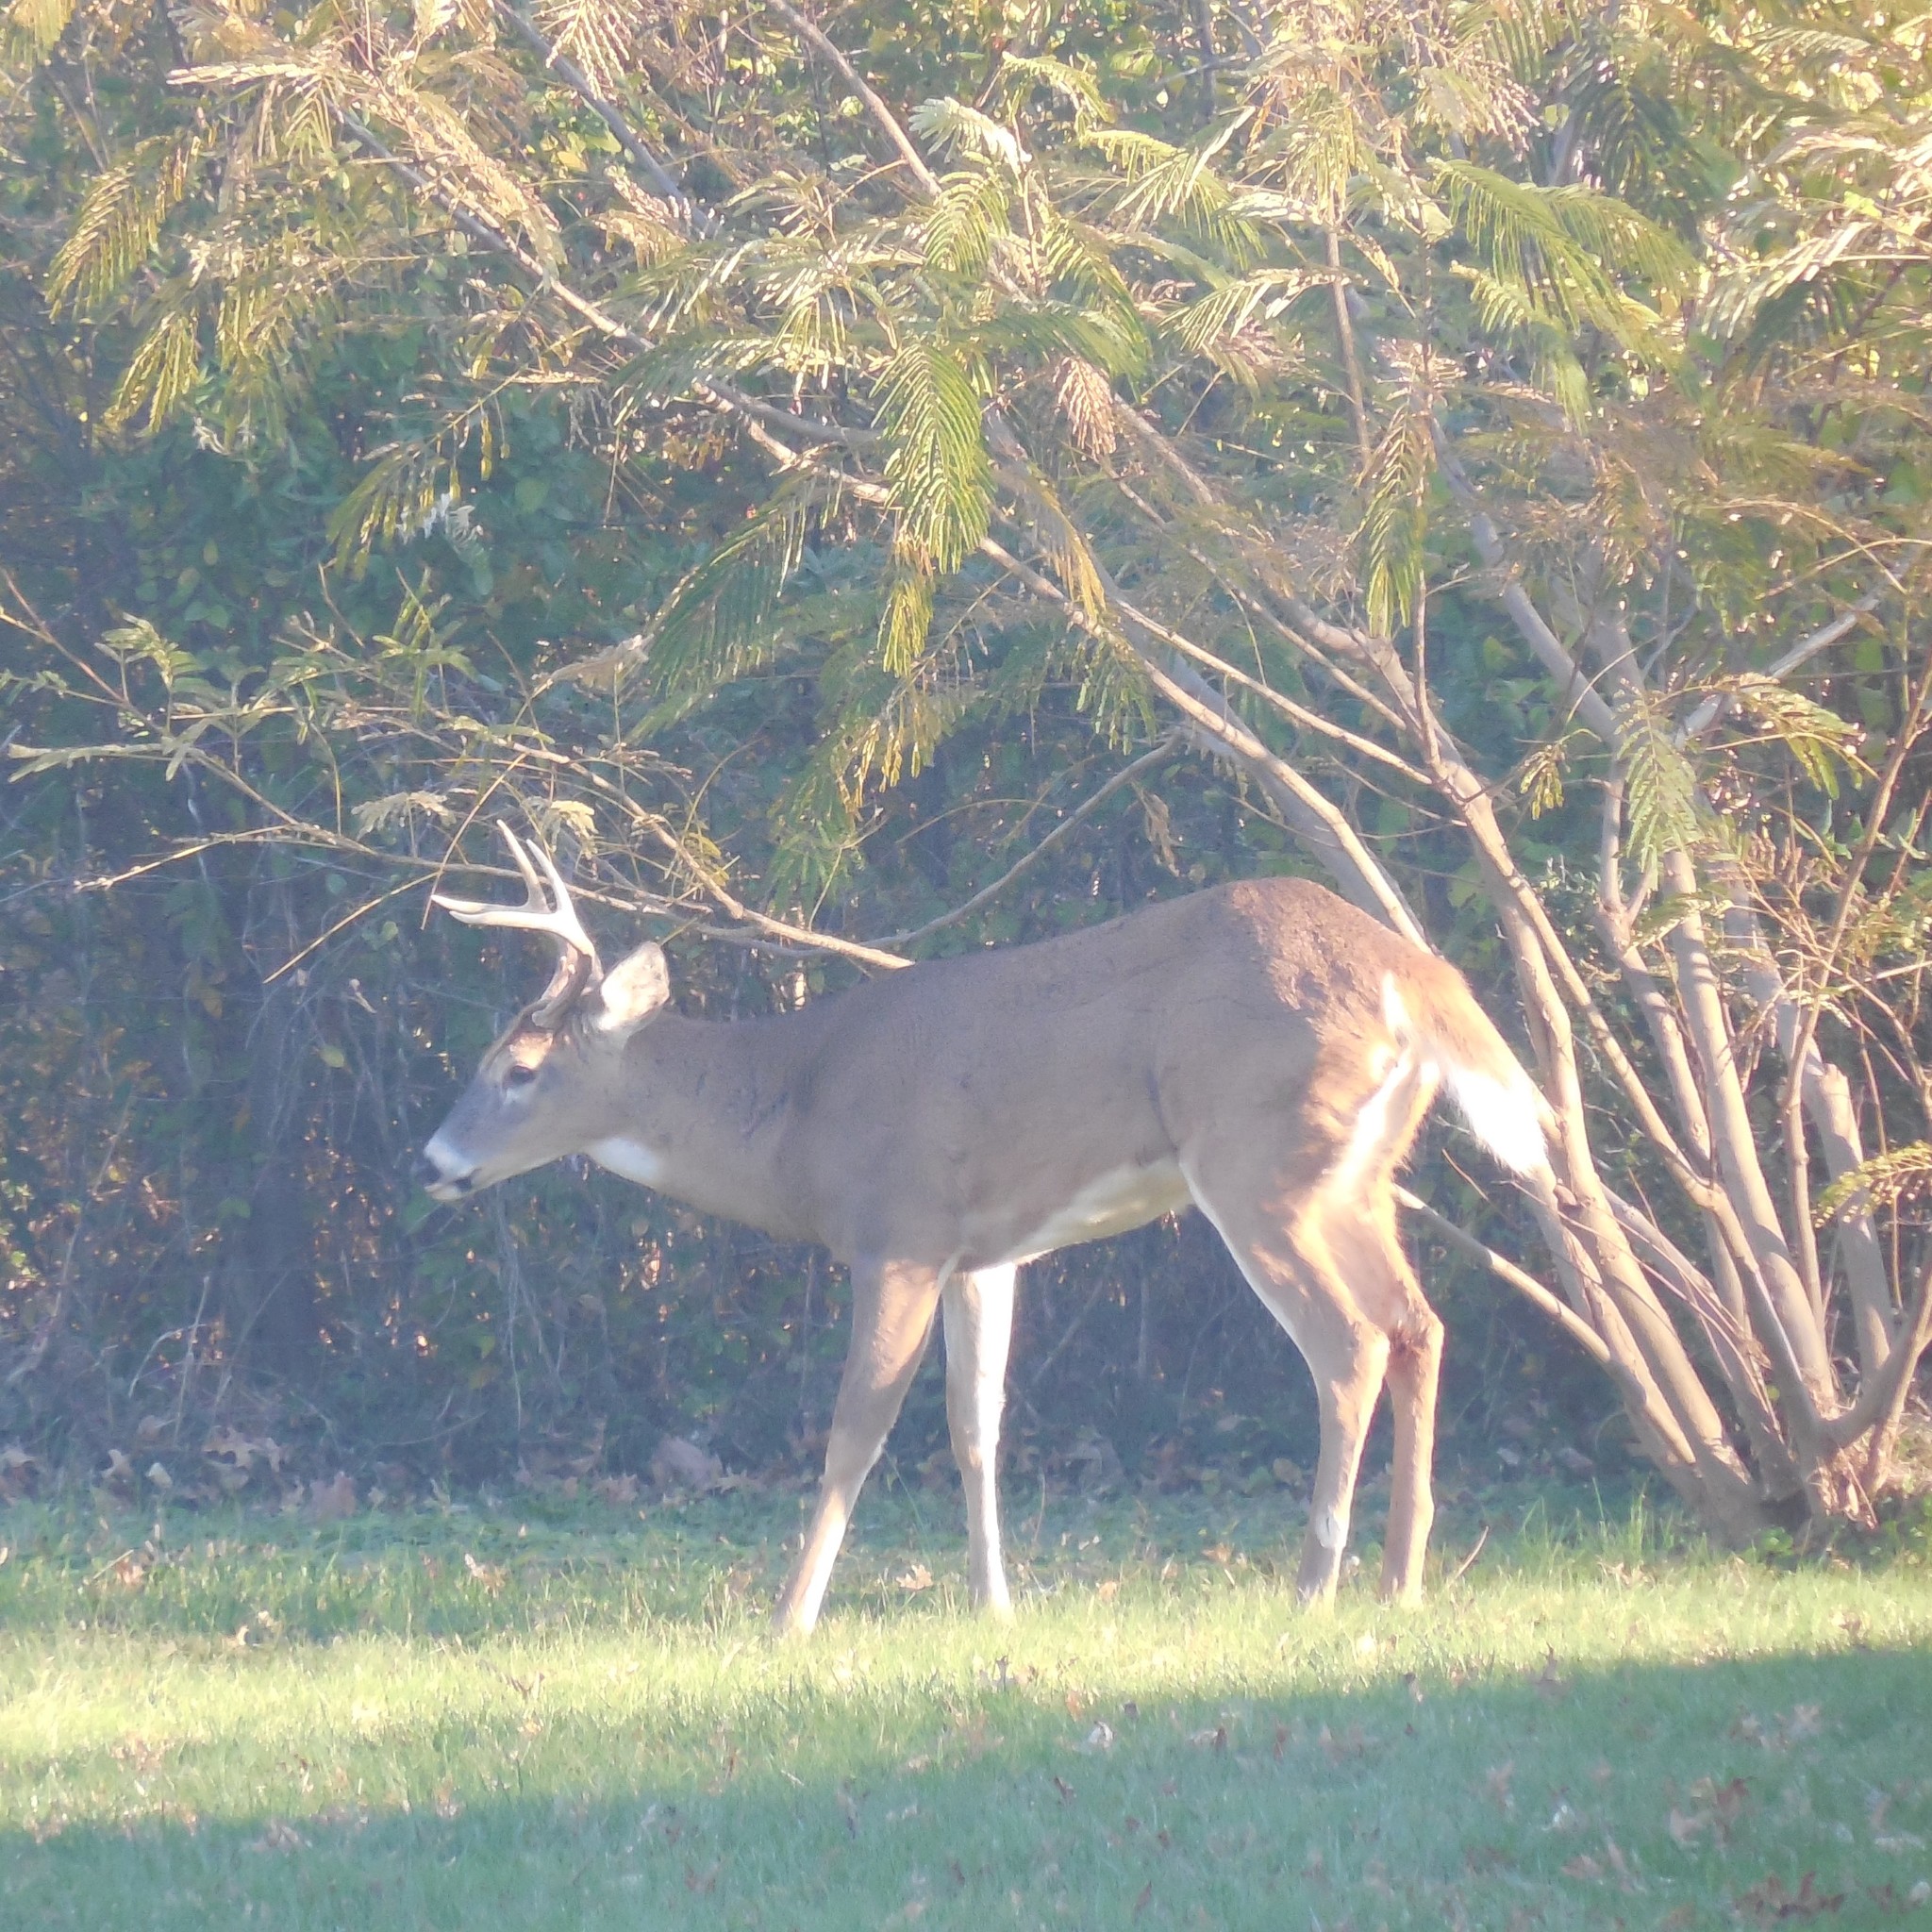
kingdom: Animalia
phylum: Chordata
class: Mammalia
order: Artiodactyla
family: Cervidae
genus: Odocoileus
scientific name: Odocoileus virginianus
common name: White-tailed deer
